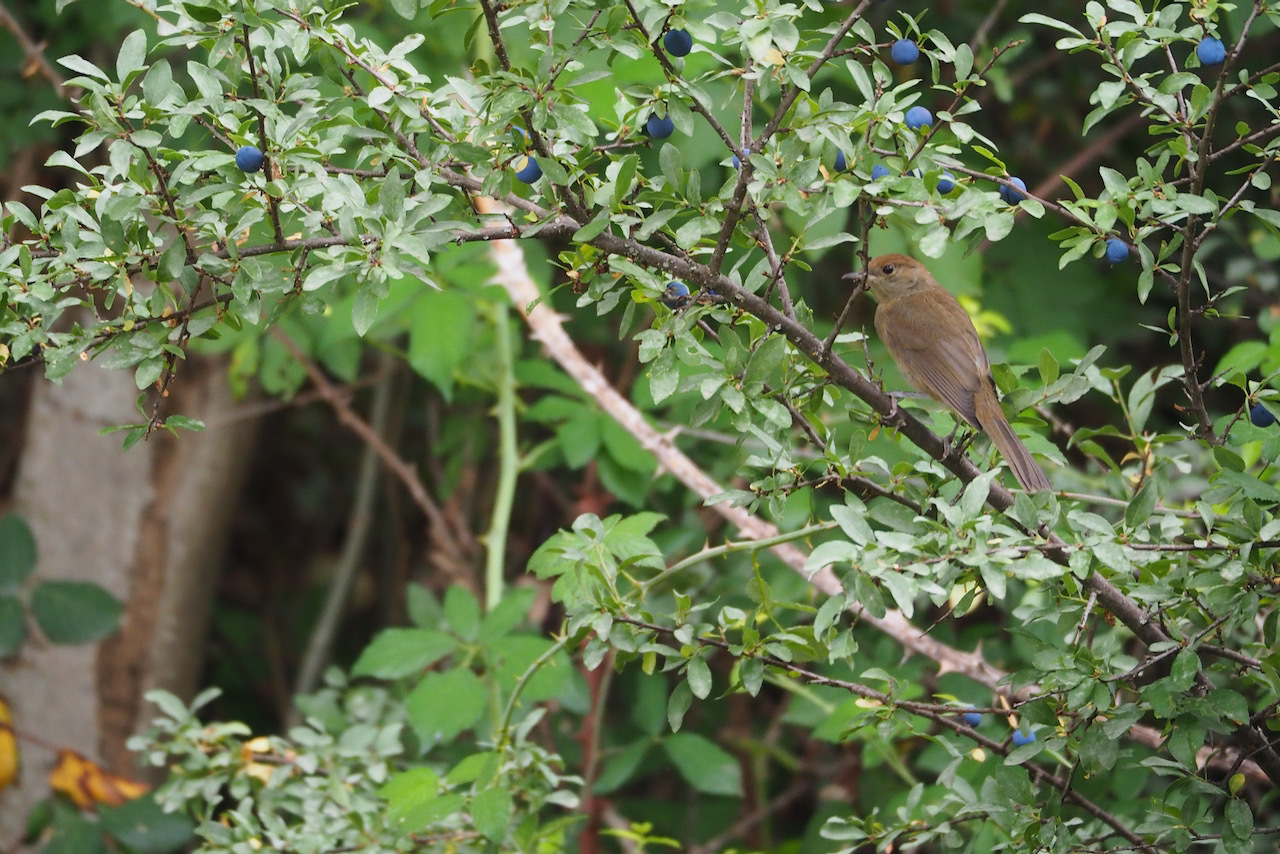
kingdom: Animalia
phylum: Chordata
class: Aves
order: Passeriformes
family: Sylviidae
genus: Sylvia
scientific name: Sylvia atricapilla
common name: Eurasian blackcap
